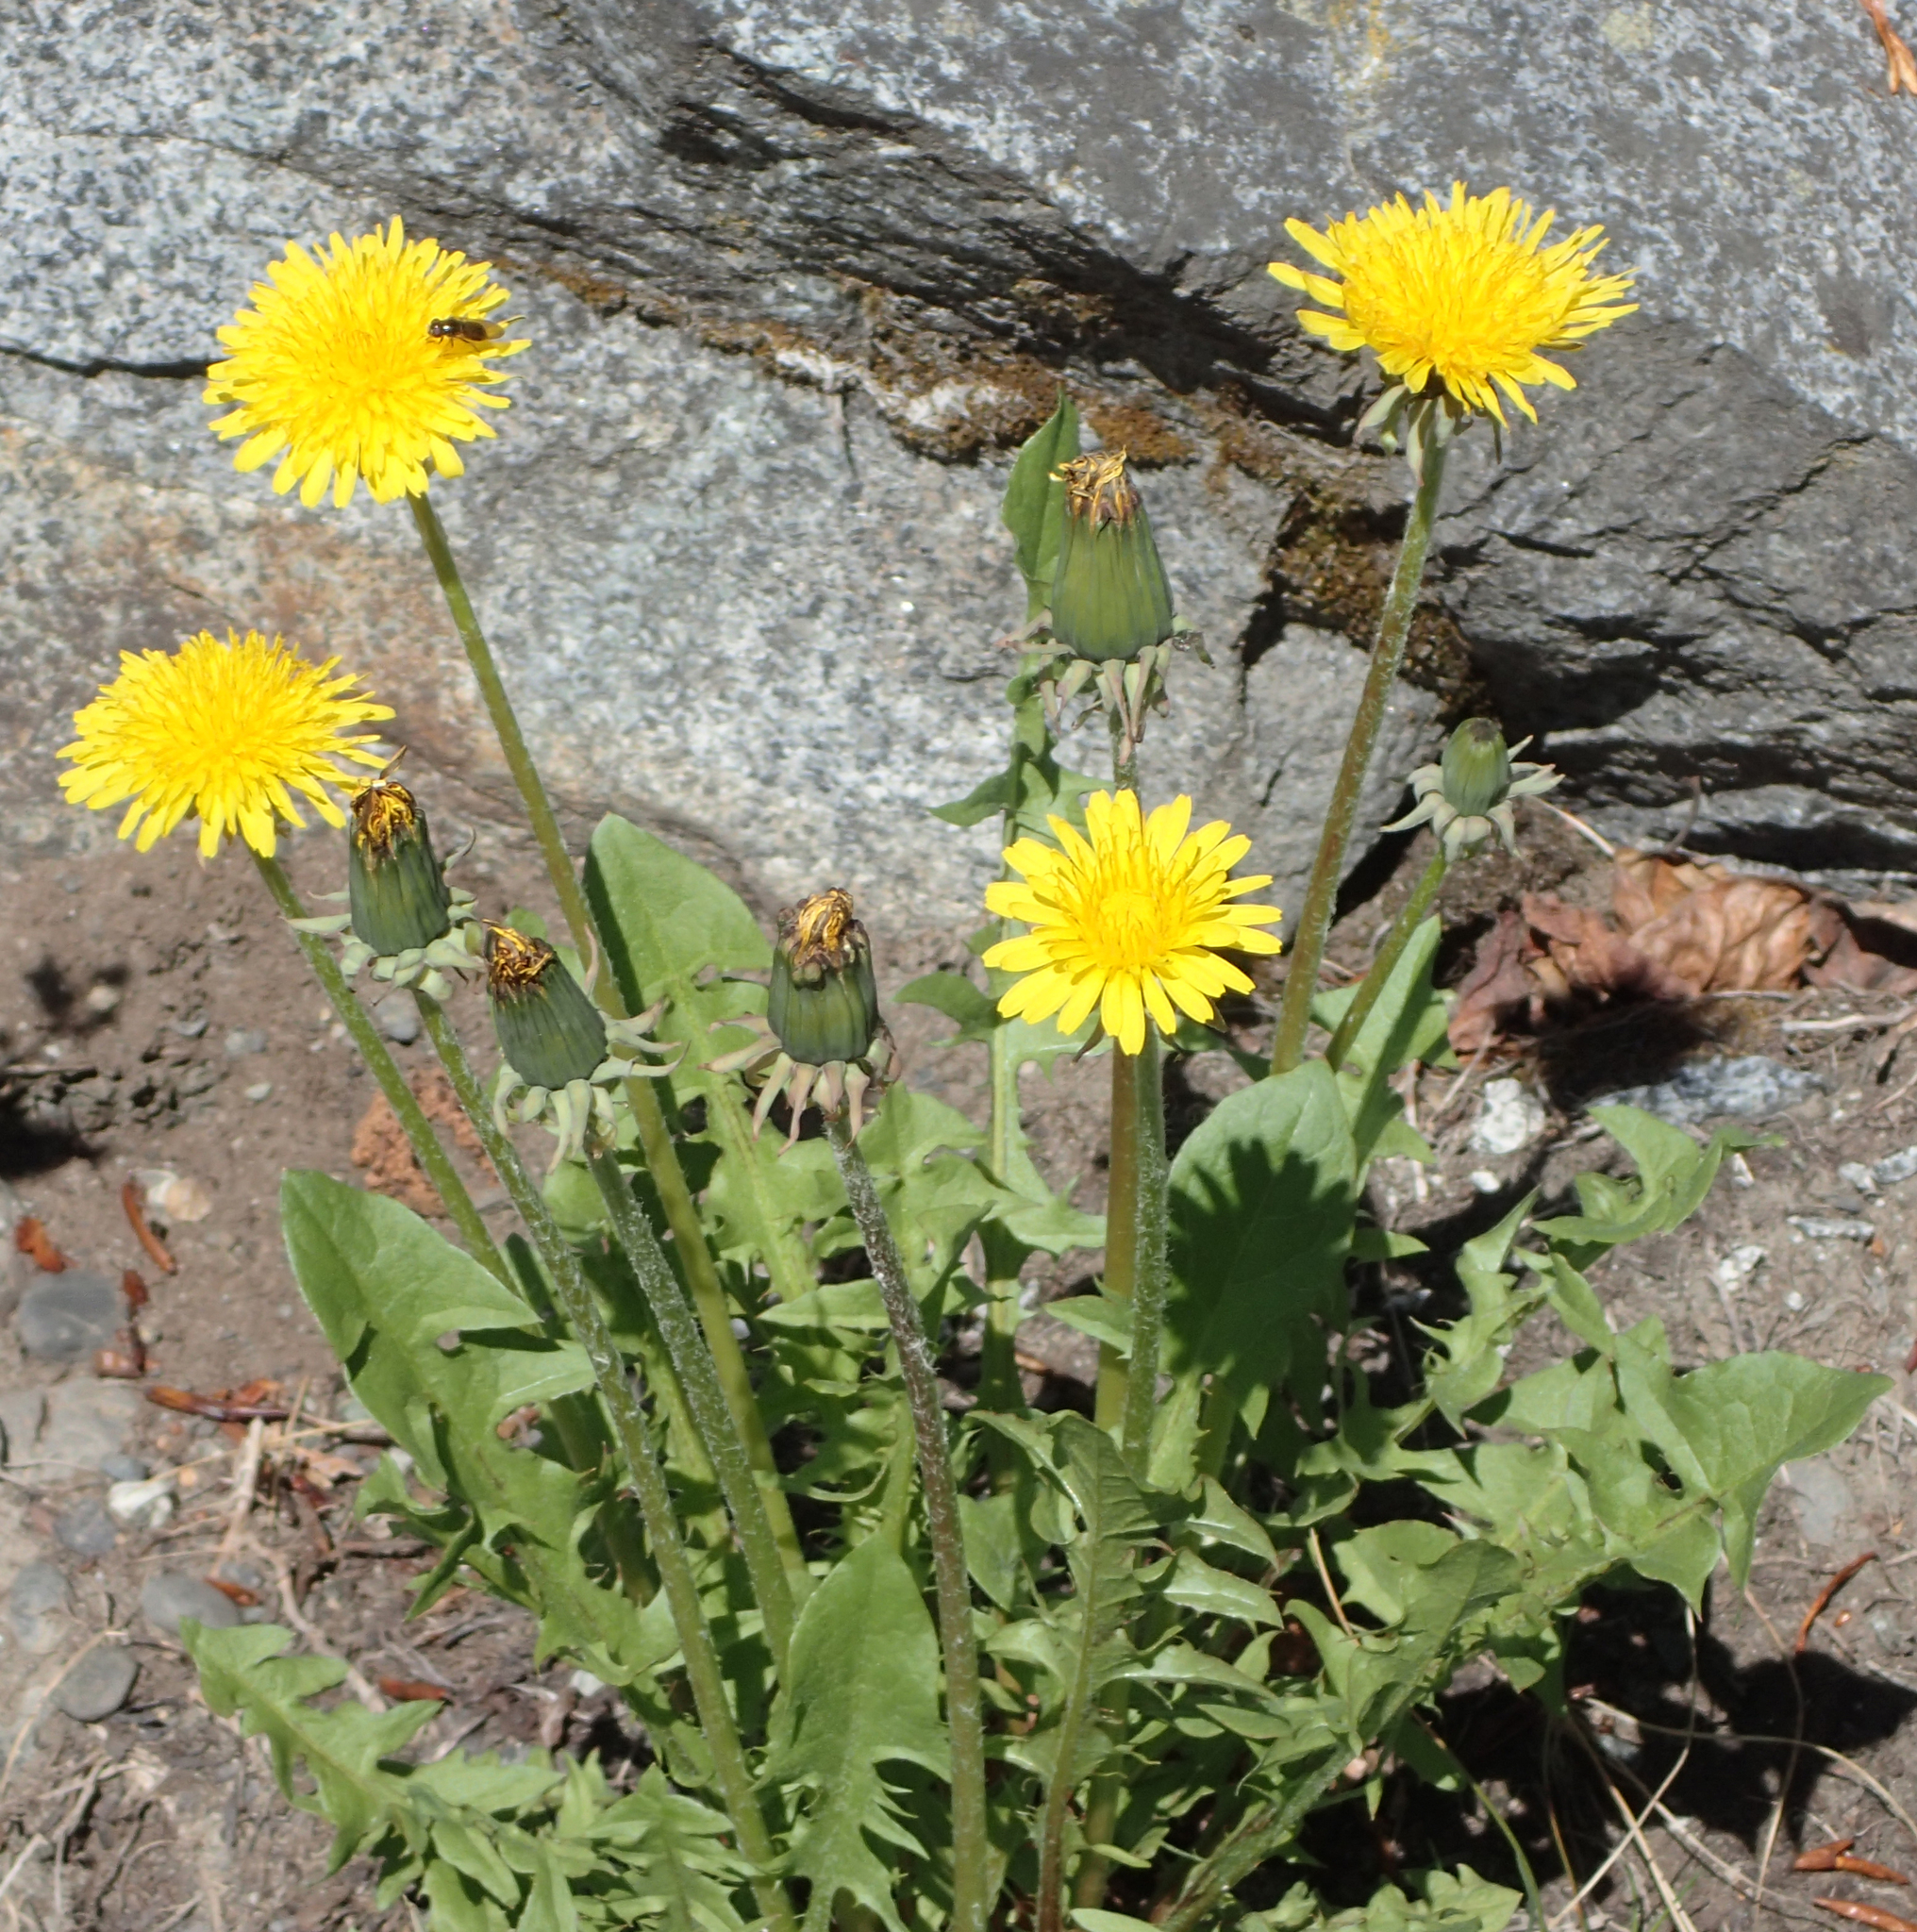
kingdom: Plantae
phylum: Tracheophyta
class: Magnoliopsida
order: Asterales
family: Asteraceae
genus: Taraxacum
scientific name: Taraxacum officinale
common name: Common dandelion
